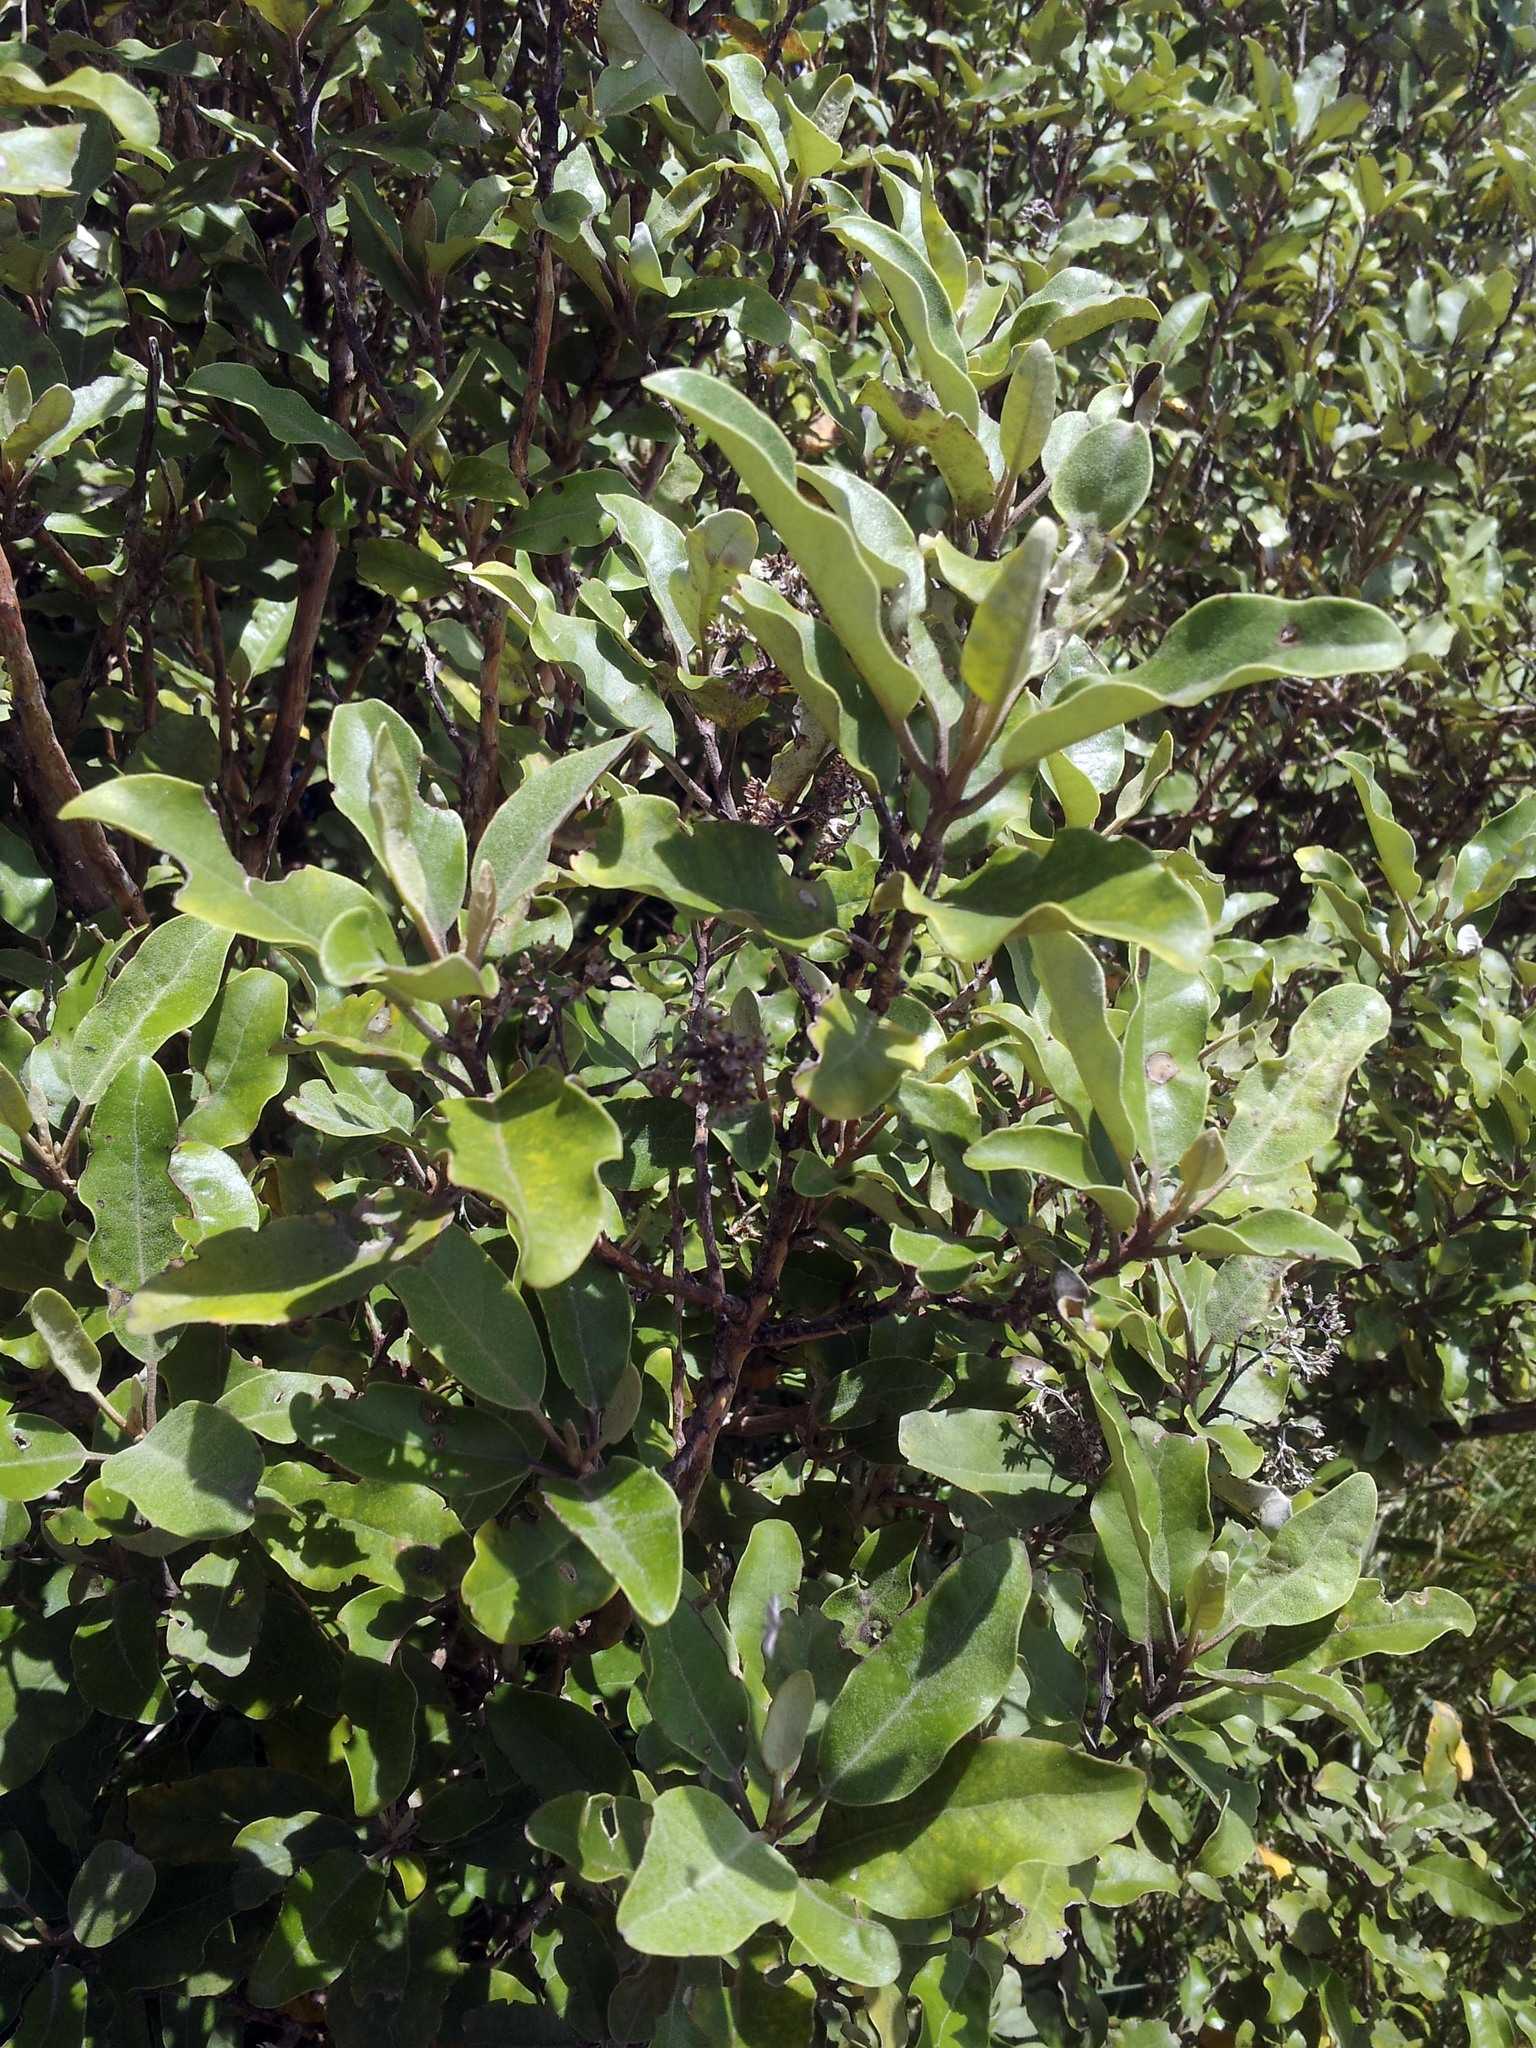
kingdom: Plantae
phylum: Tracheophyta
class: Magnoliopsida
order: Asterales
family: Asteraceae
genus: Olearia
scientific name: Olearia albida
